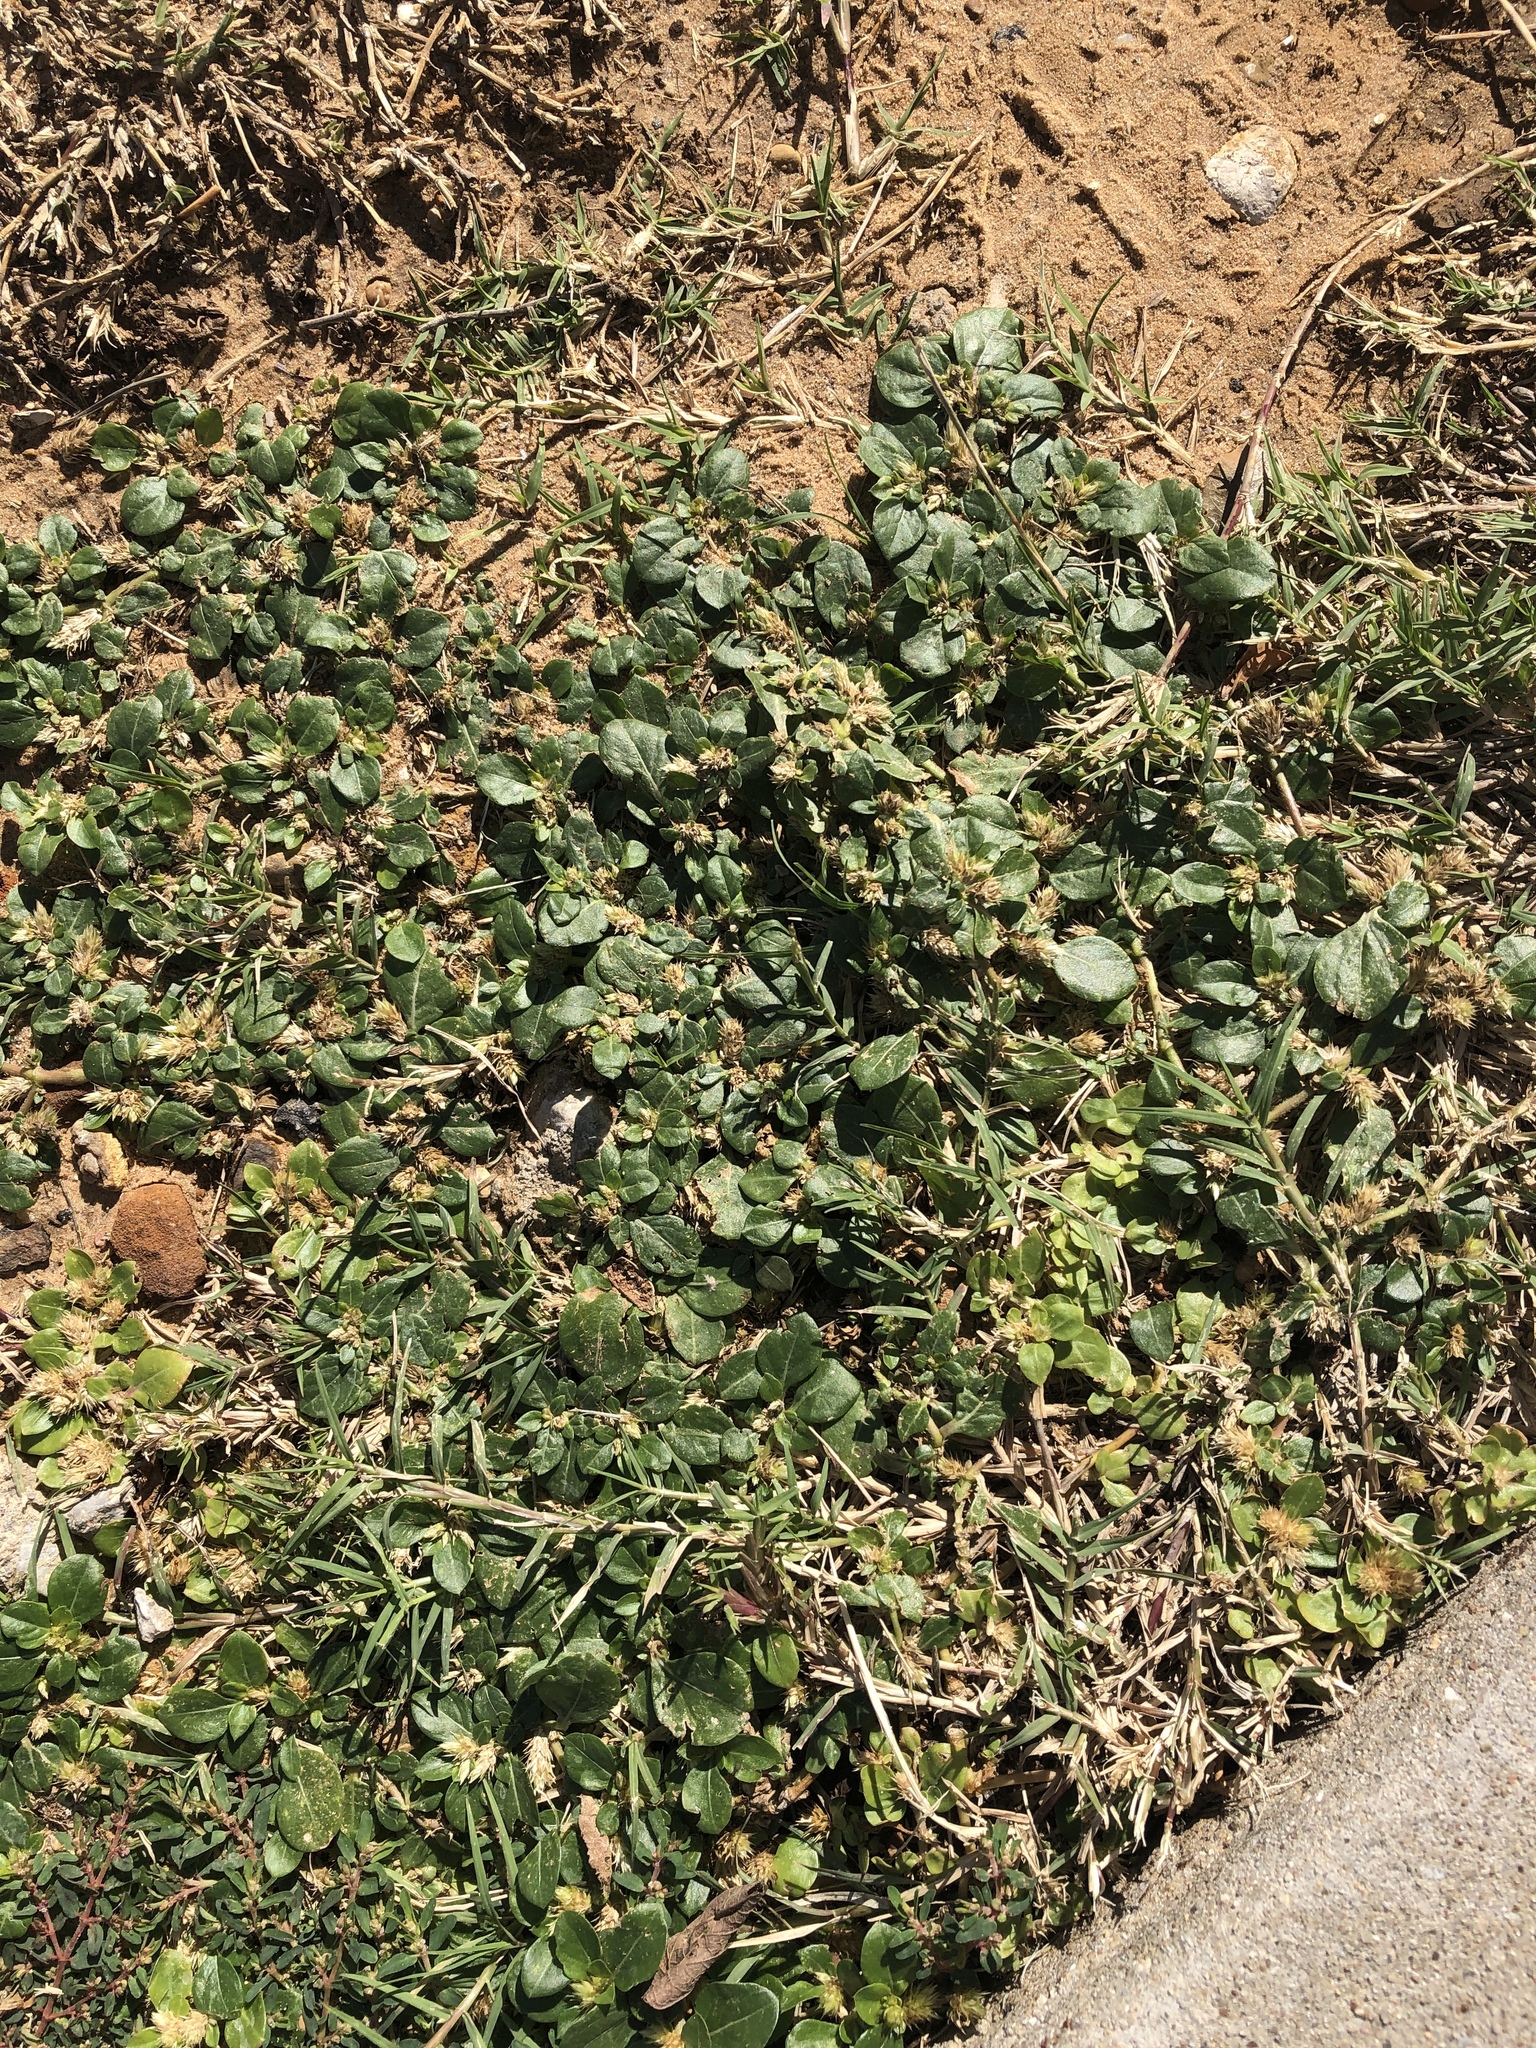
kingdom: Plantae
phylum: Tracheophyta
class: Magnoliopsida
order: Caryophyllales
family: Amaranthaceae
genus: Alternanthera
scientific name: Alternanthera caracasana
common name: Washerwoman
